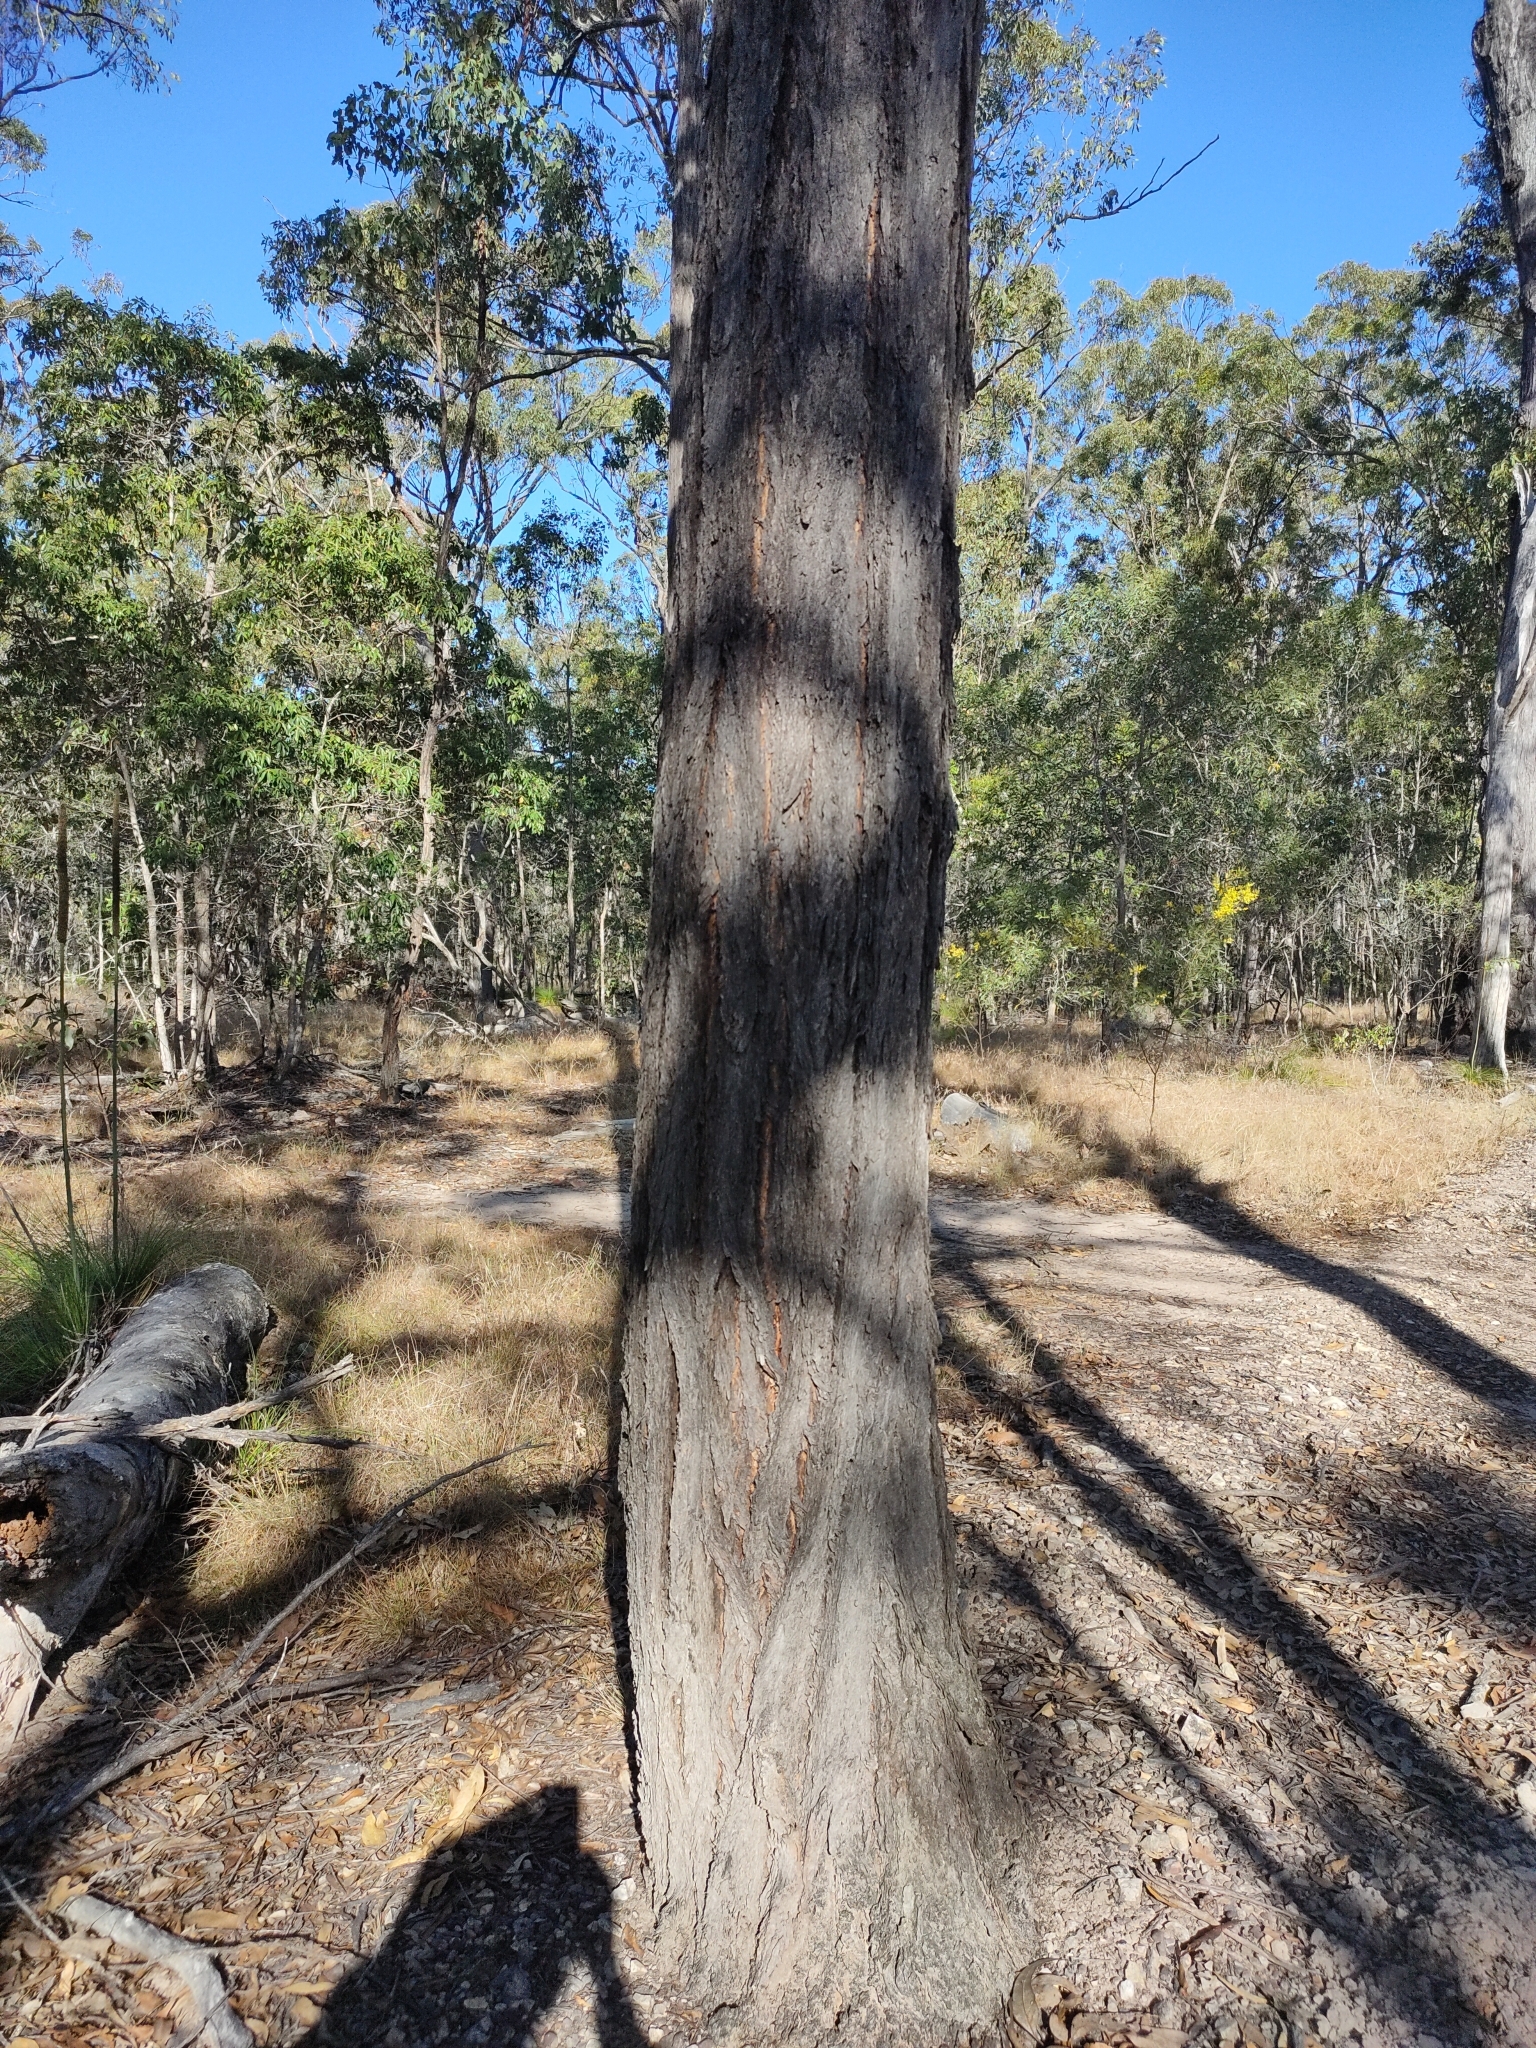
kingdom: Plantae
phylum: Tracheophyta
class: Magnoliopsida
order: Myrtales
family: Myrtaceae
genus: Eucalyptus
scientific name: Eucalyptus fibrosa
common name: Red ironbark
